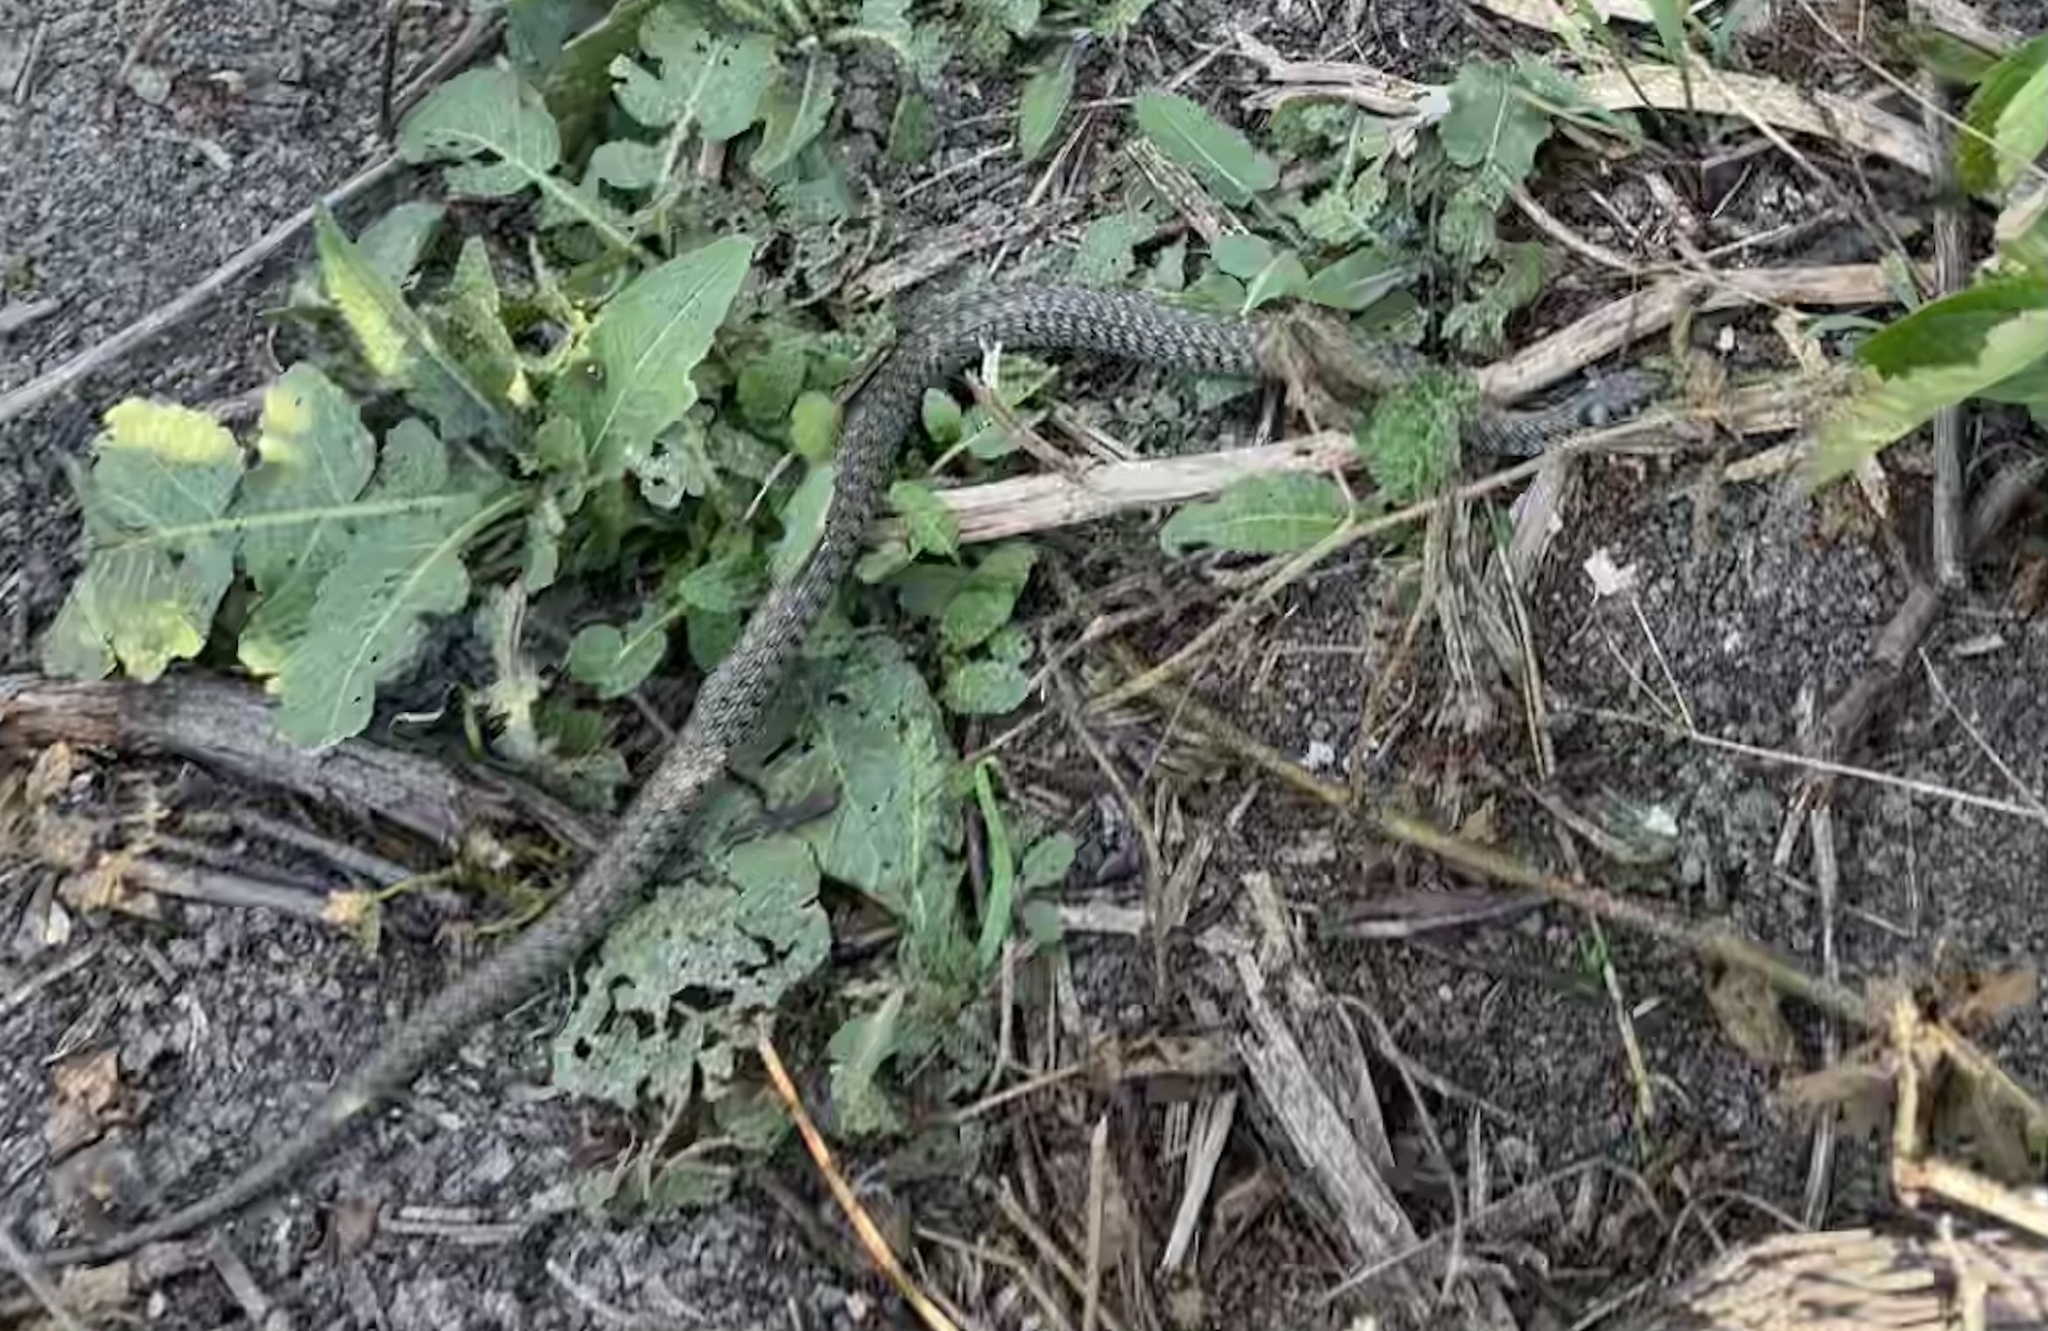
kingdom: Animalia
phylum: Chordata
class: Squamata
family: Colubridae
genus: Natrix
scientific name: Natrix natrix
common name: Grass snake
